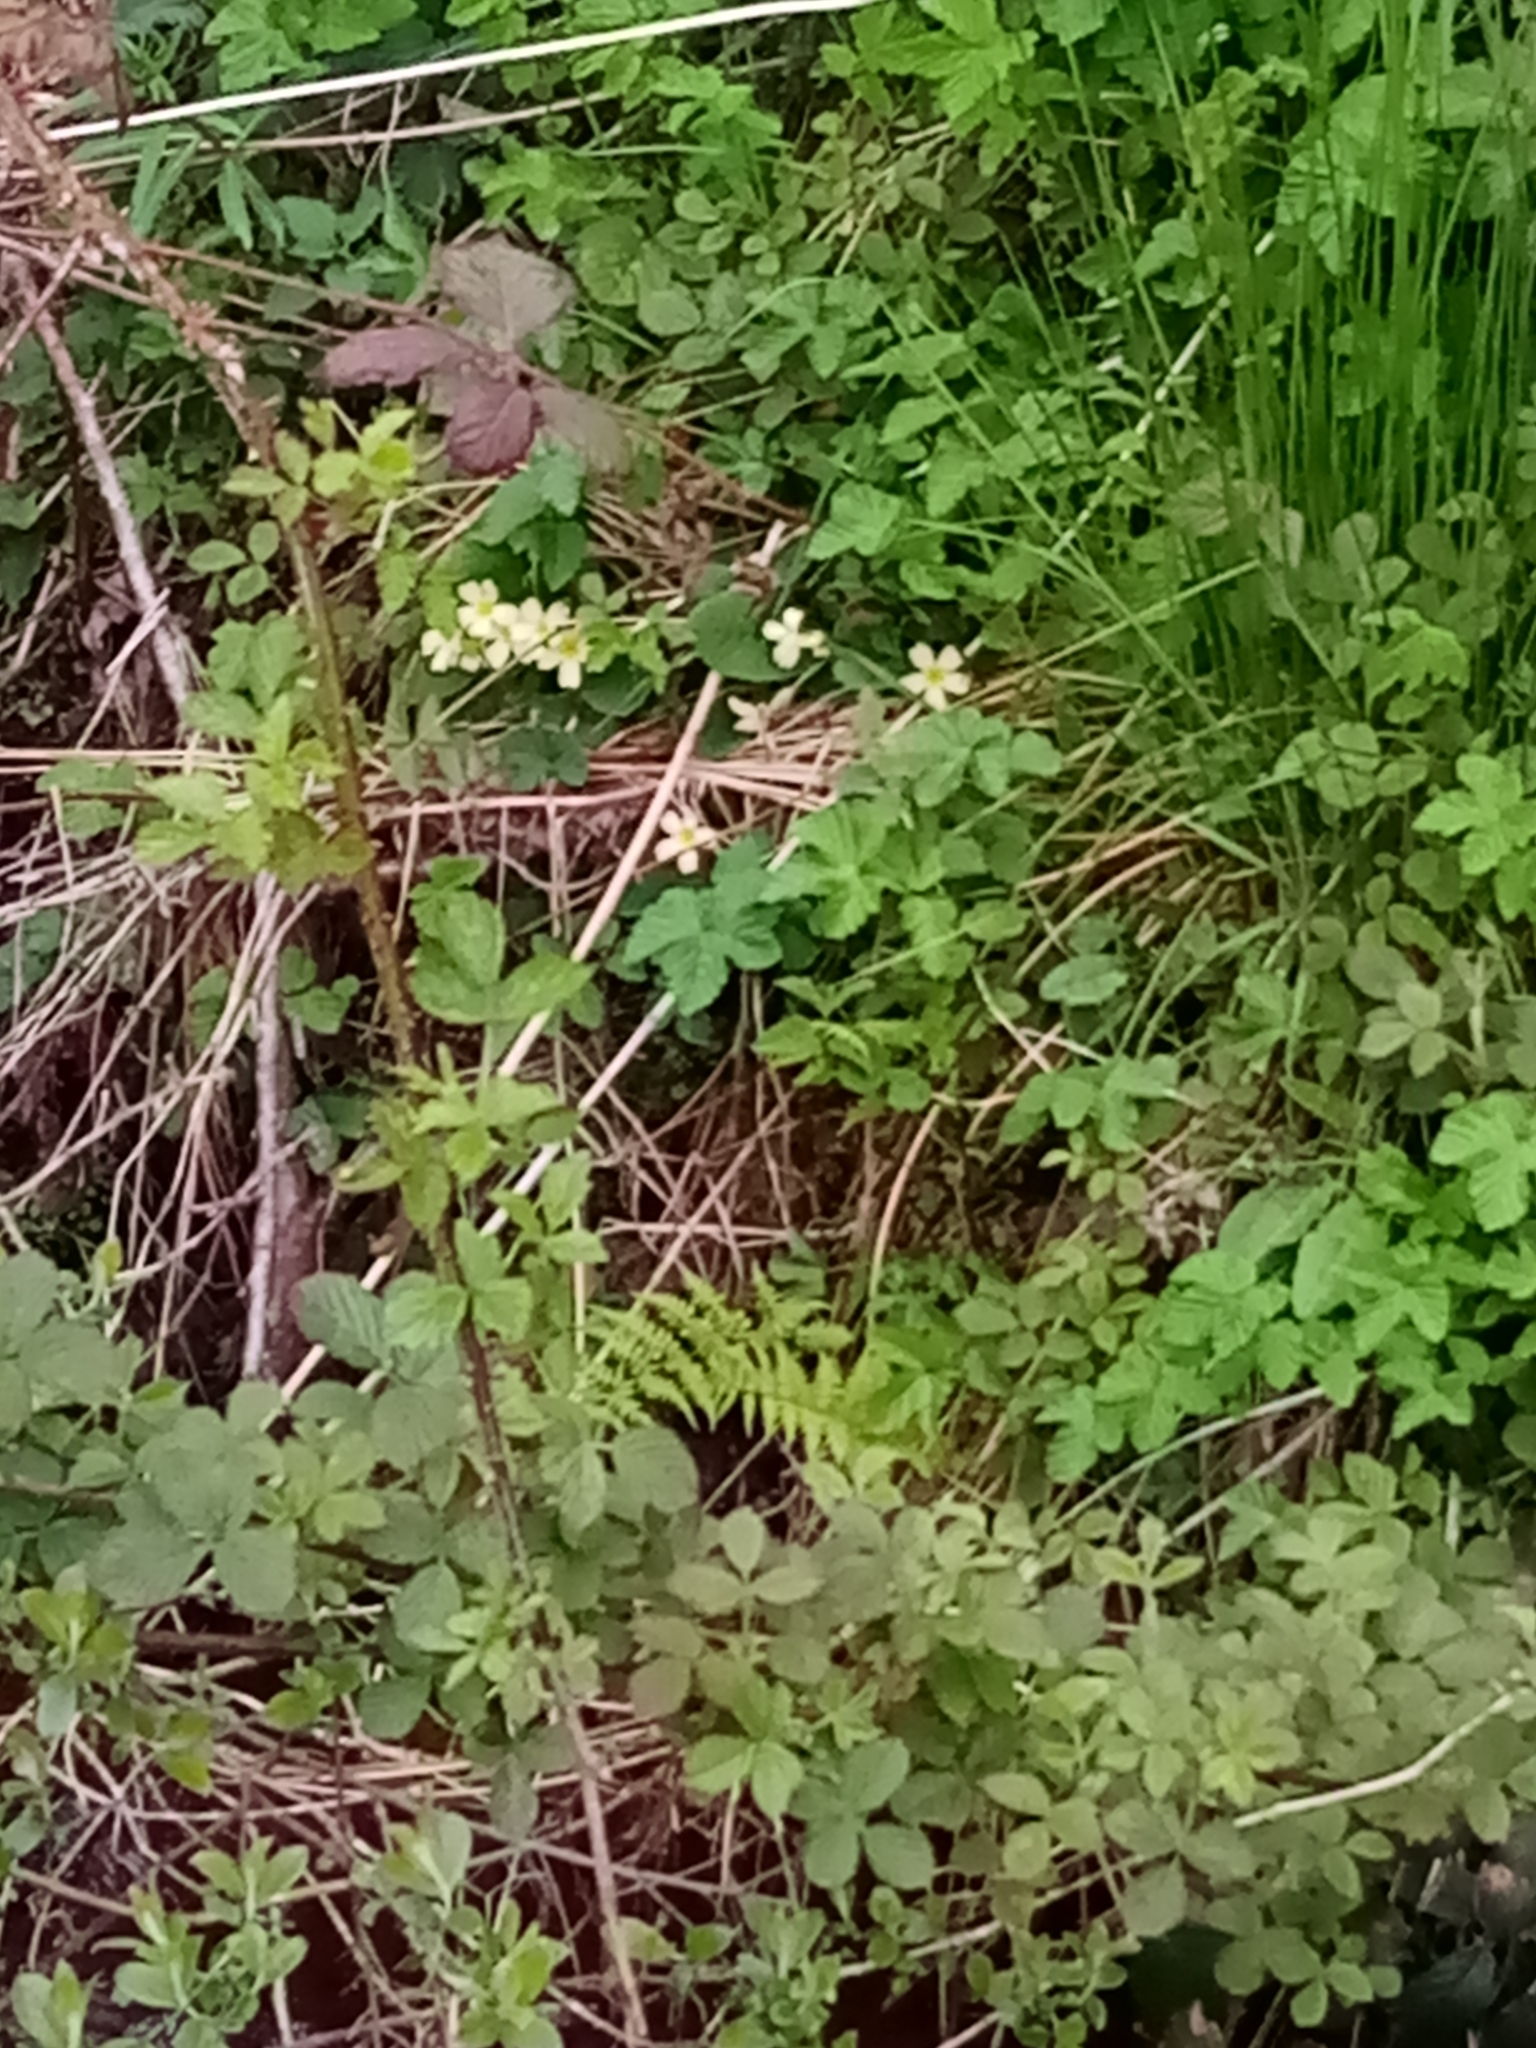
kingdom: Plantae
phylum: Tracheophyta
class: Magnoliopsida
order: Ericales
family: Primulaceae
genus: Primula
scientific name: Primula vulgaris
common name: Primrose
